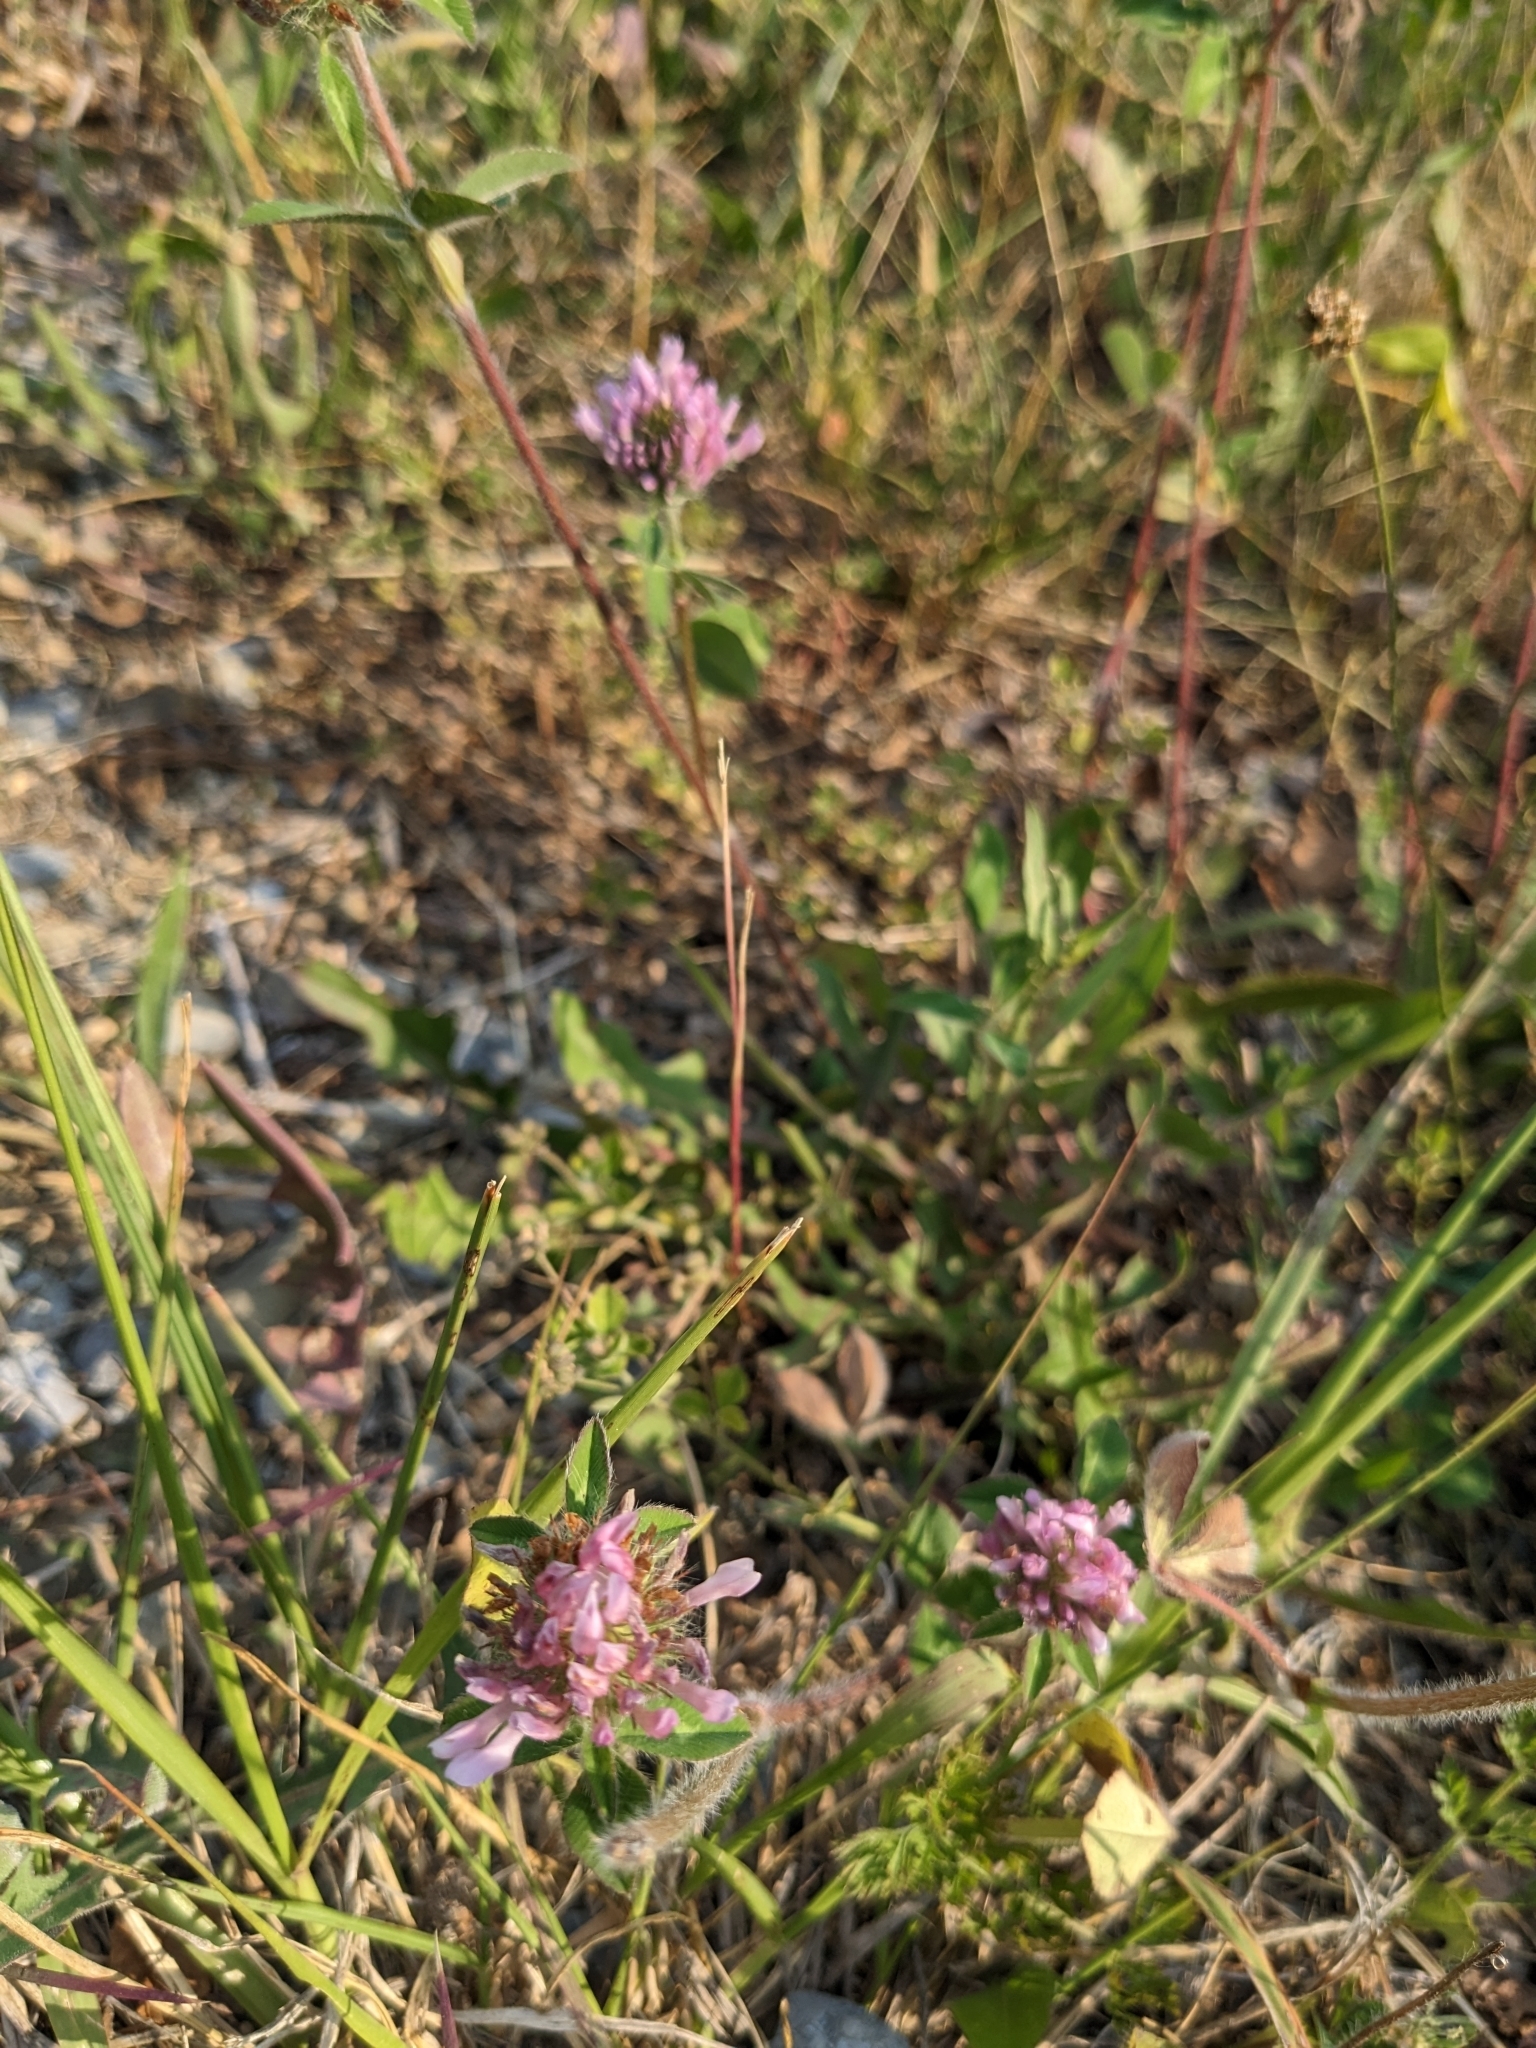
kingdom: Plantae
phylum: Tracheophyta
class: Magnoliopsida
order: Fabales
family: Fabaceae
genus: Trifolium
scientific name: Trifolium pratense
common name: Red clover
